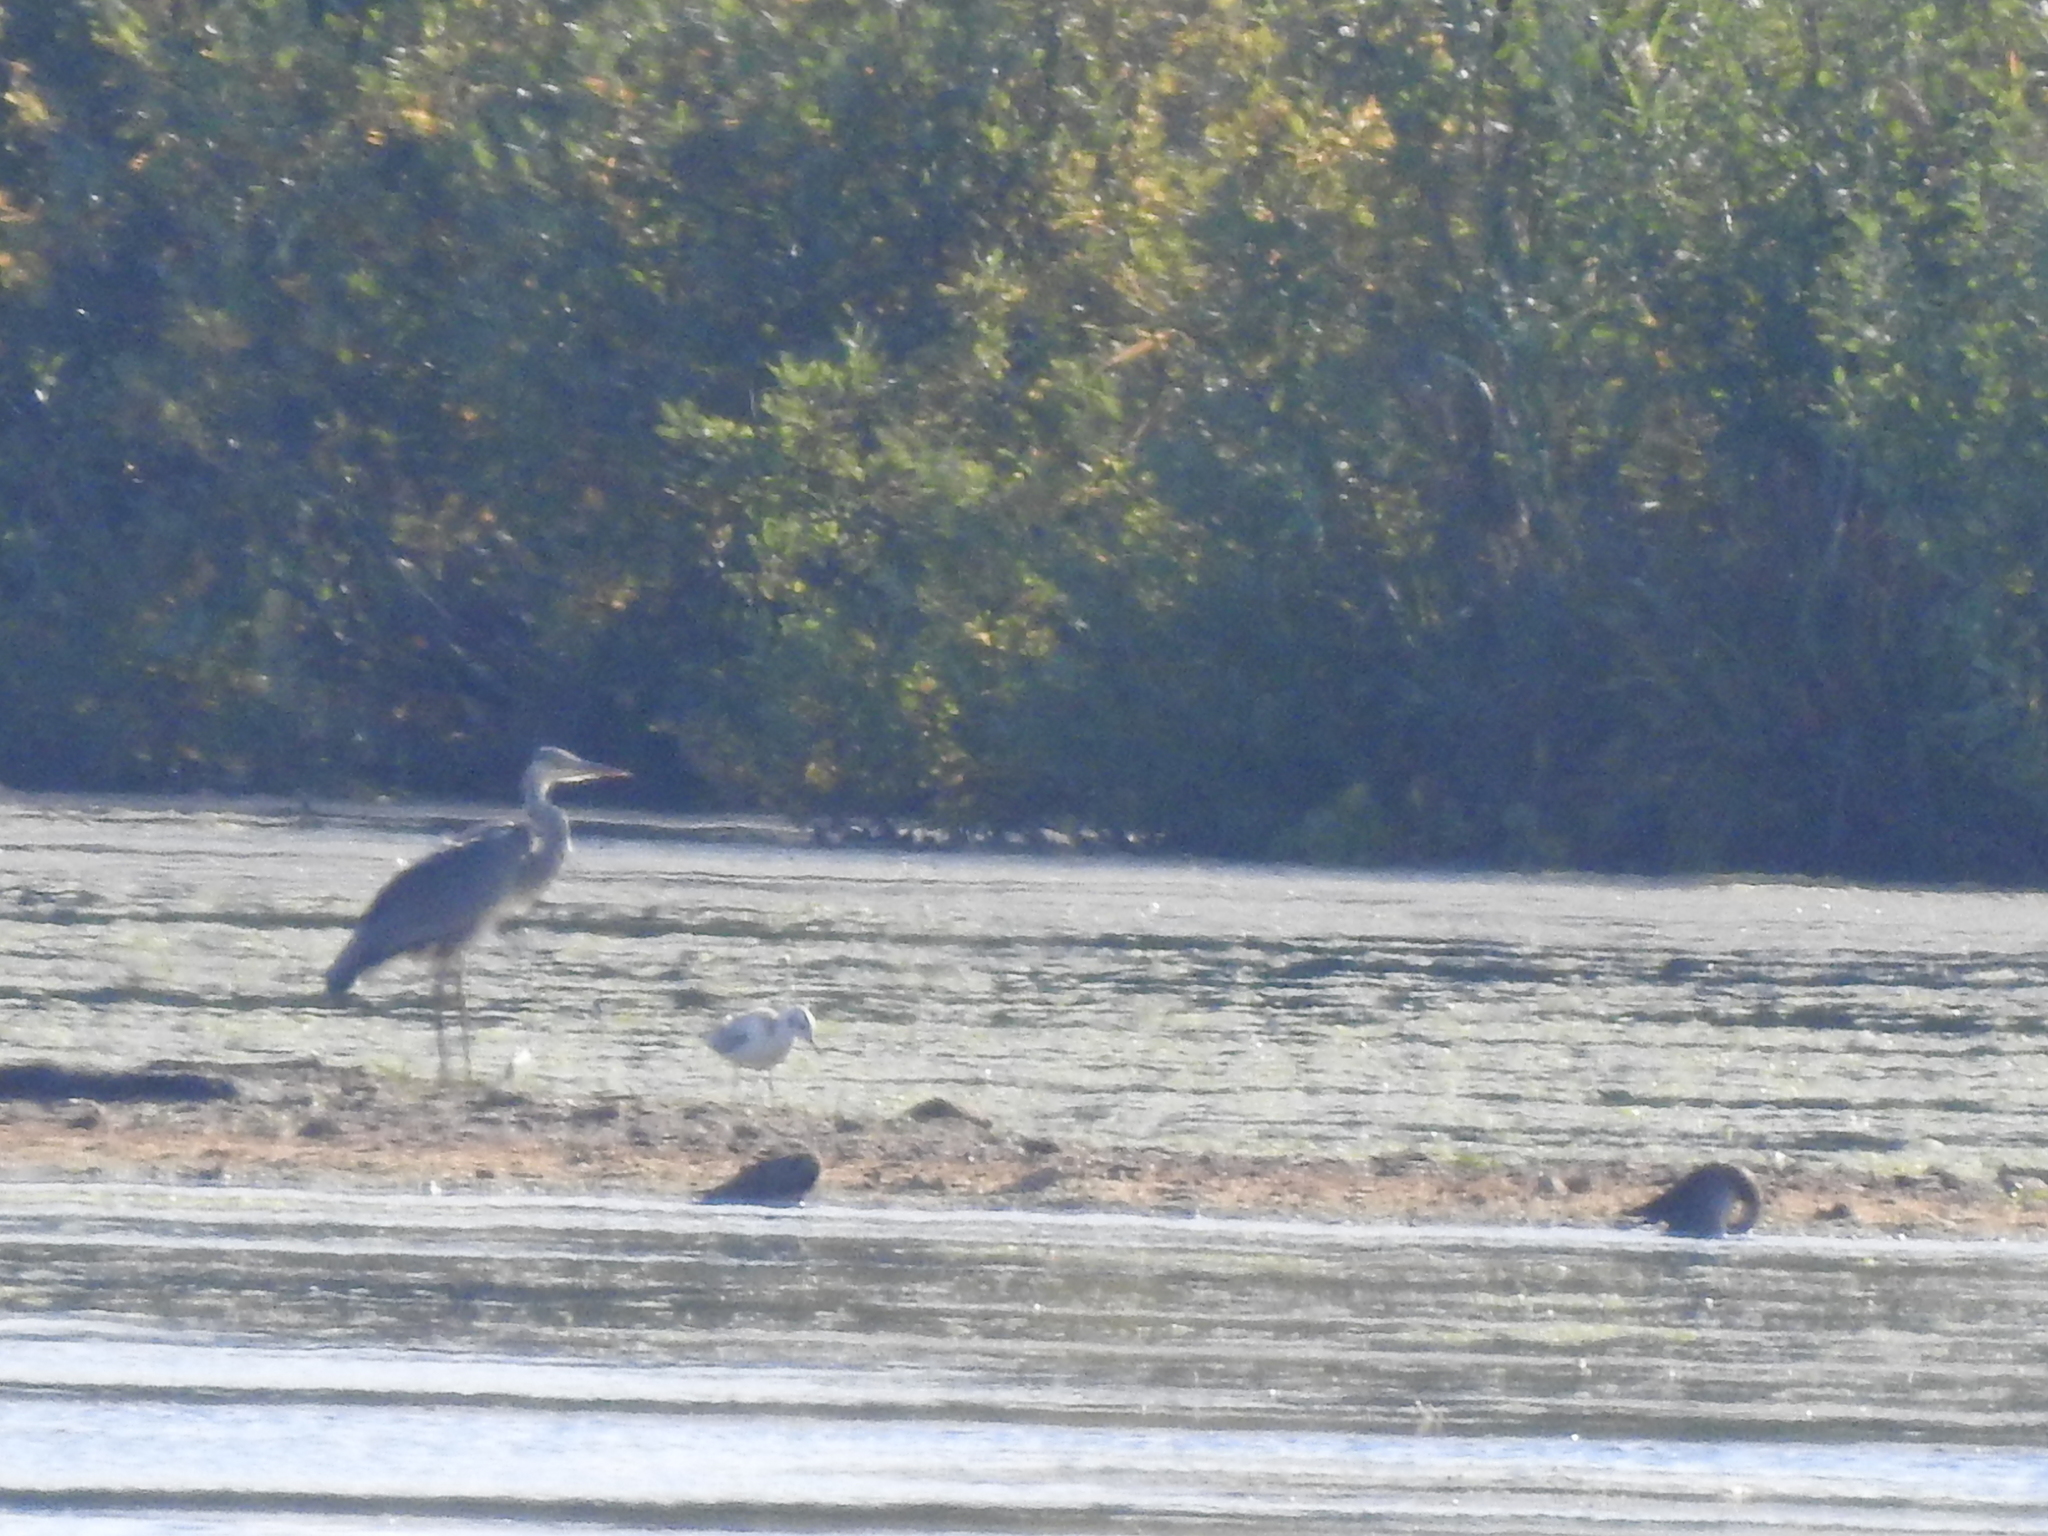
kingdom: Animalia
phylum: Chordata
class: Aves
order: Pelecaniformes
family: Ardeidae
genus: Ardea
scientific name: Ardea cinerea
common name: Grey heron
